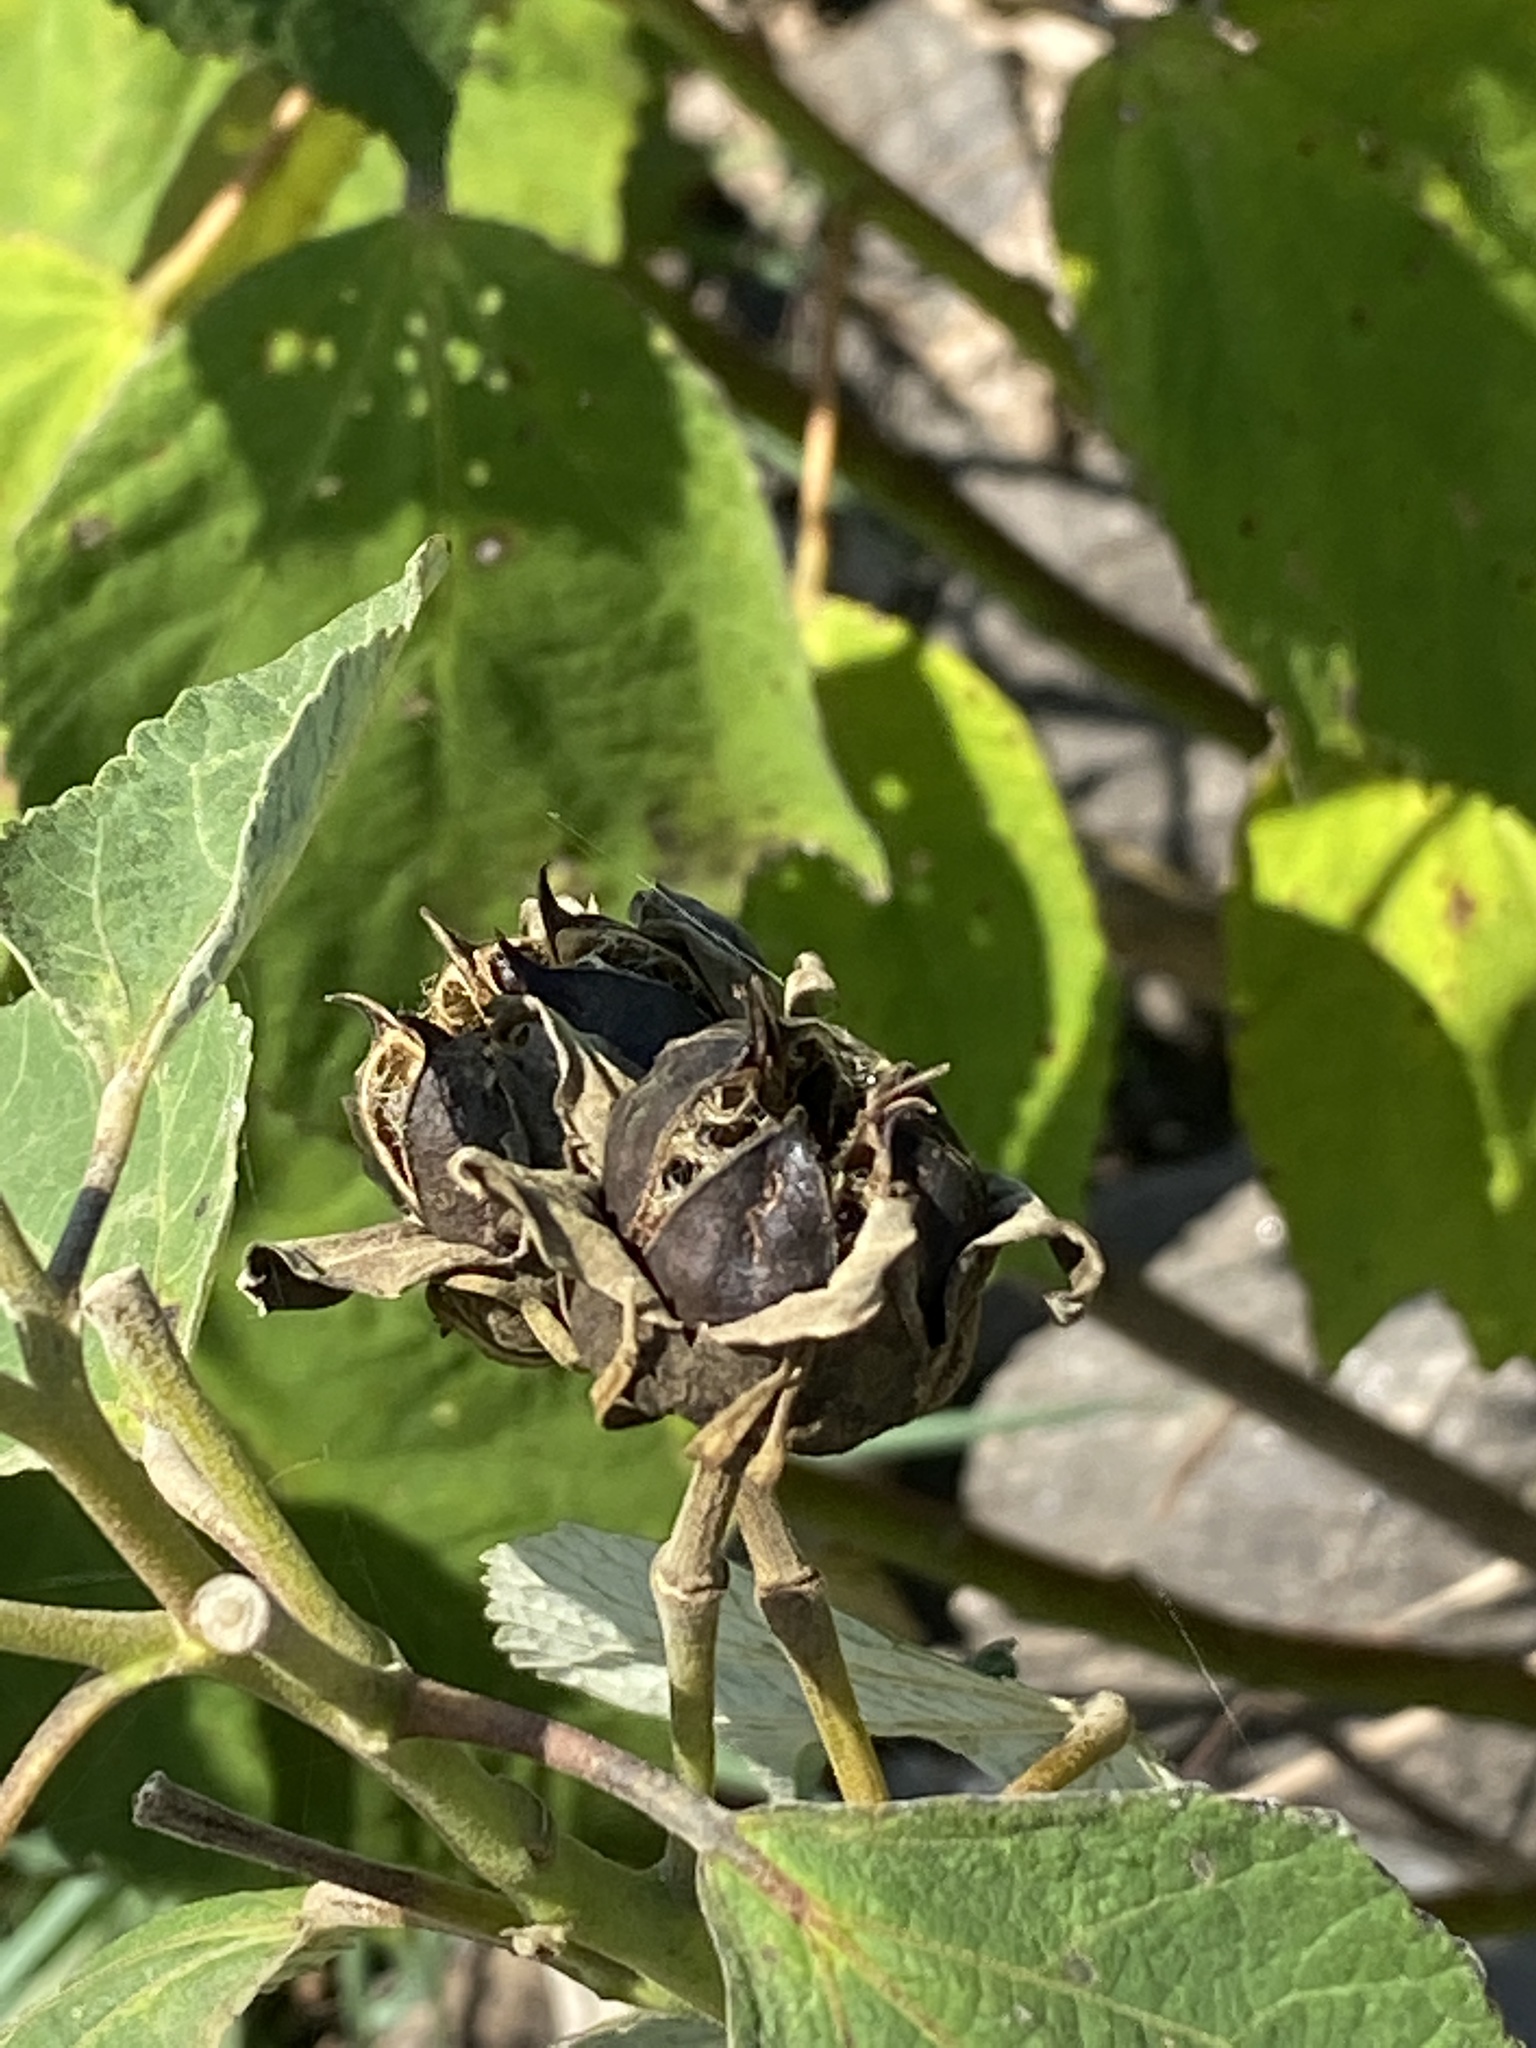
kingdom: Plantae
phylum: Tracheophyta
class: Magnoliopsida
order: Malvales
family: Malvaceae
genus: Hibiscus
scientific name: Hibiscus moscheutos
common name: Common rose-mallow
